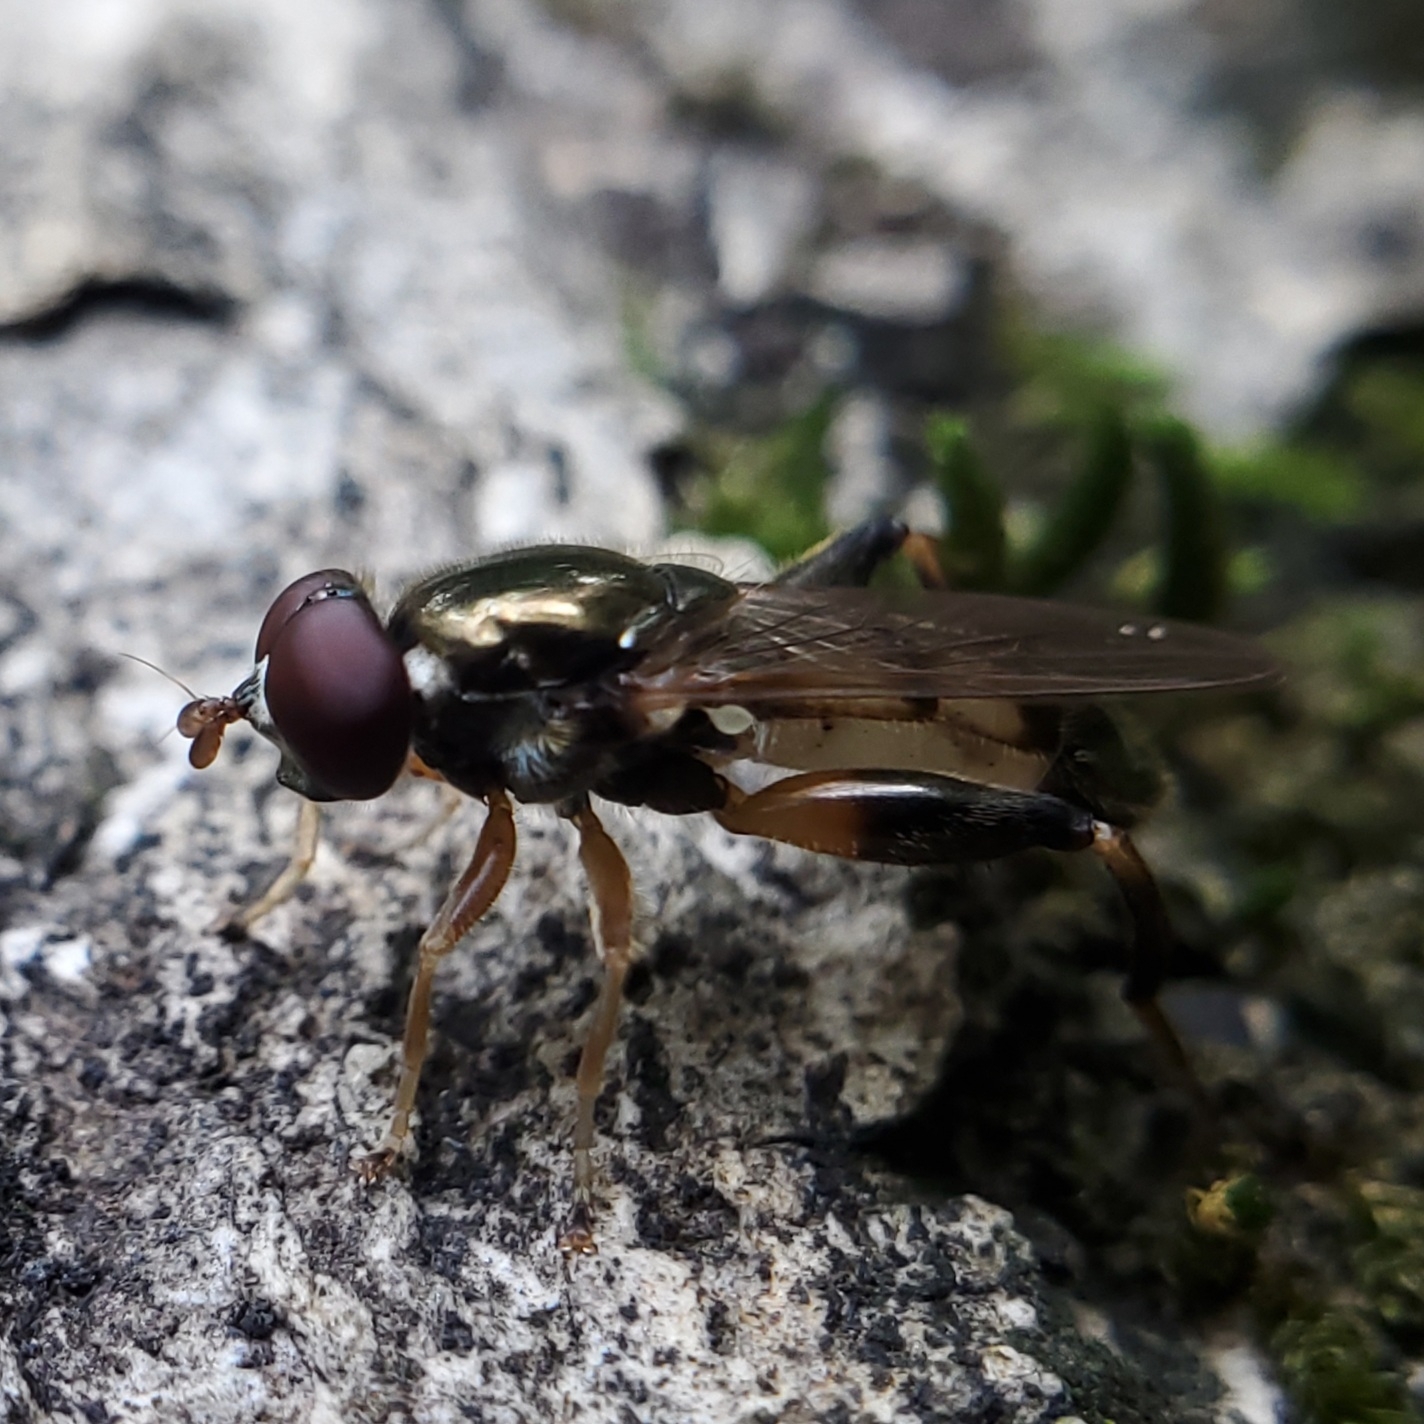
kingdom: Animalia
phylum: Arthropoda
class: Insecta
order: Diptera
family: Syrphidae
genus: Chalcosyrphus
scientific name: Chalcosyrphus metallicus
